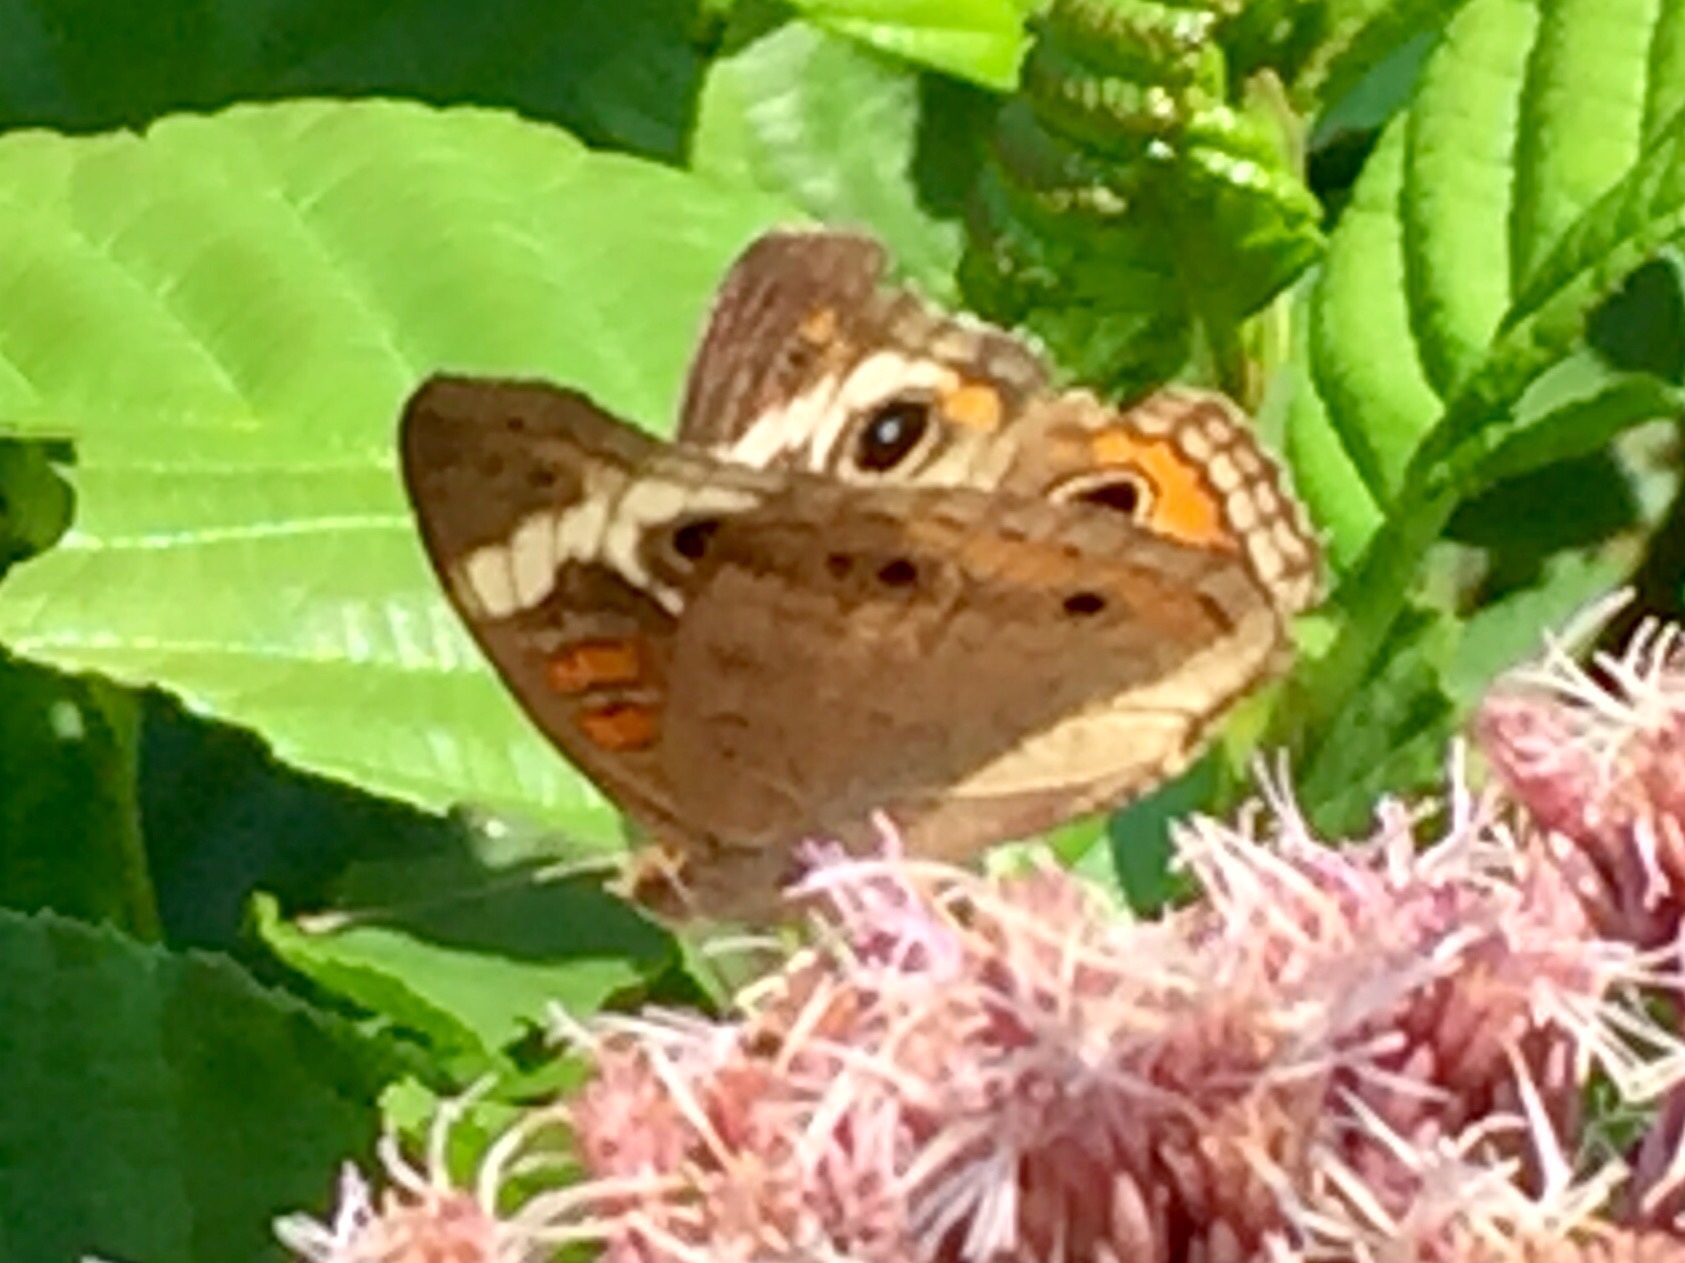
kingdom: Animalia
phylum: Arthropoda
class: Insecta
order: Lepidoptera
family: Nymphalidae
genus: Junonia
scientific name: Junonia coenia
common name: Common buckeye
